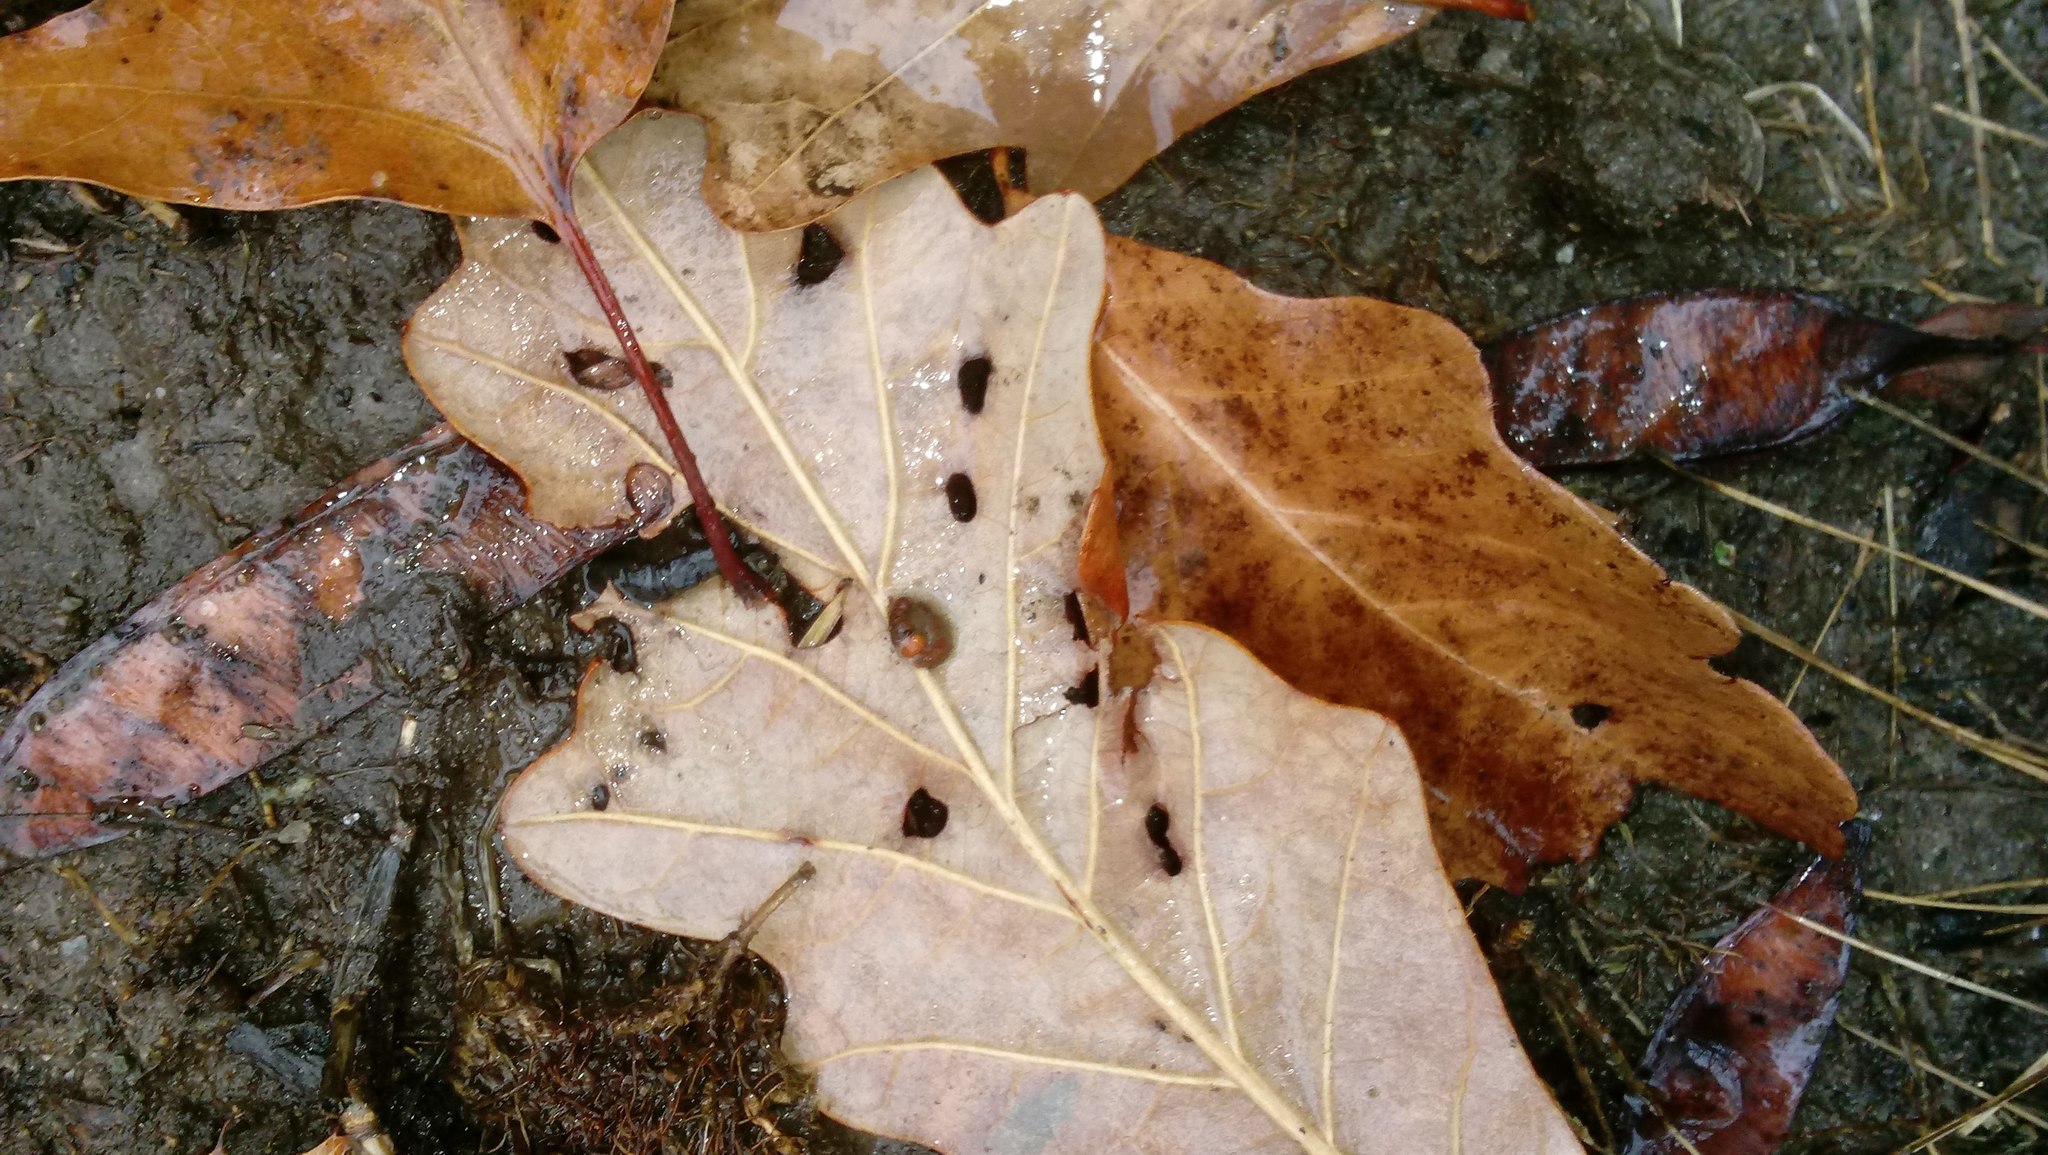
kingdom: Animalia
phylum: Arthropoda
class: Insecta
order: Hymenoptera
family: Cynipidae
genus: Andricus
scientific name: Andricus Druon ignotum
